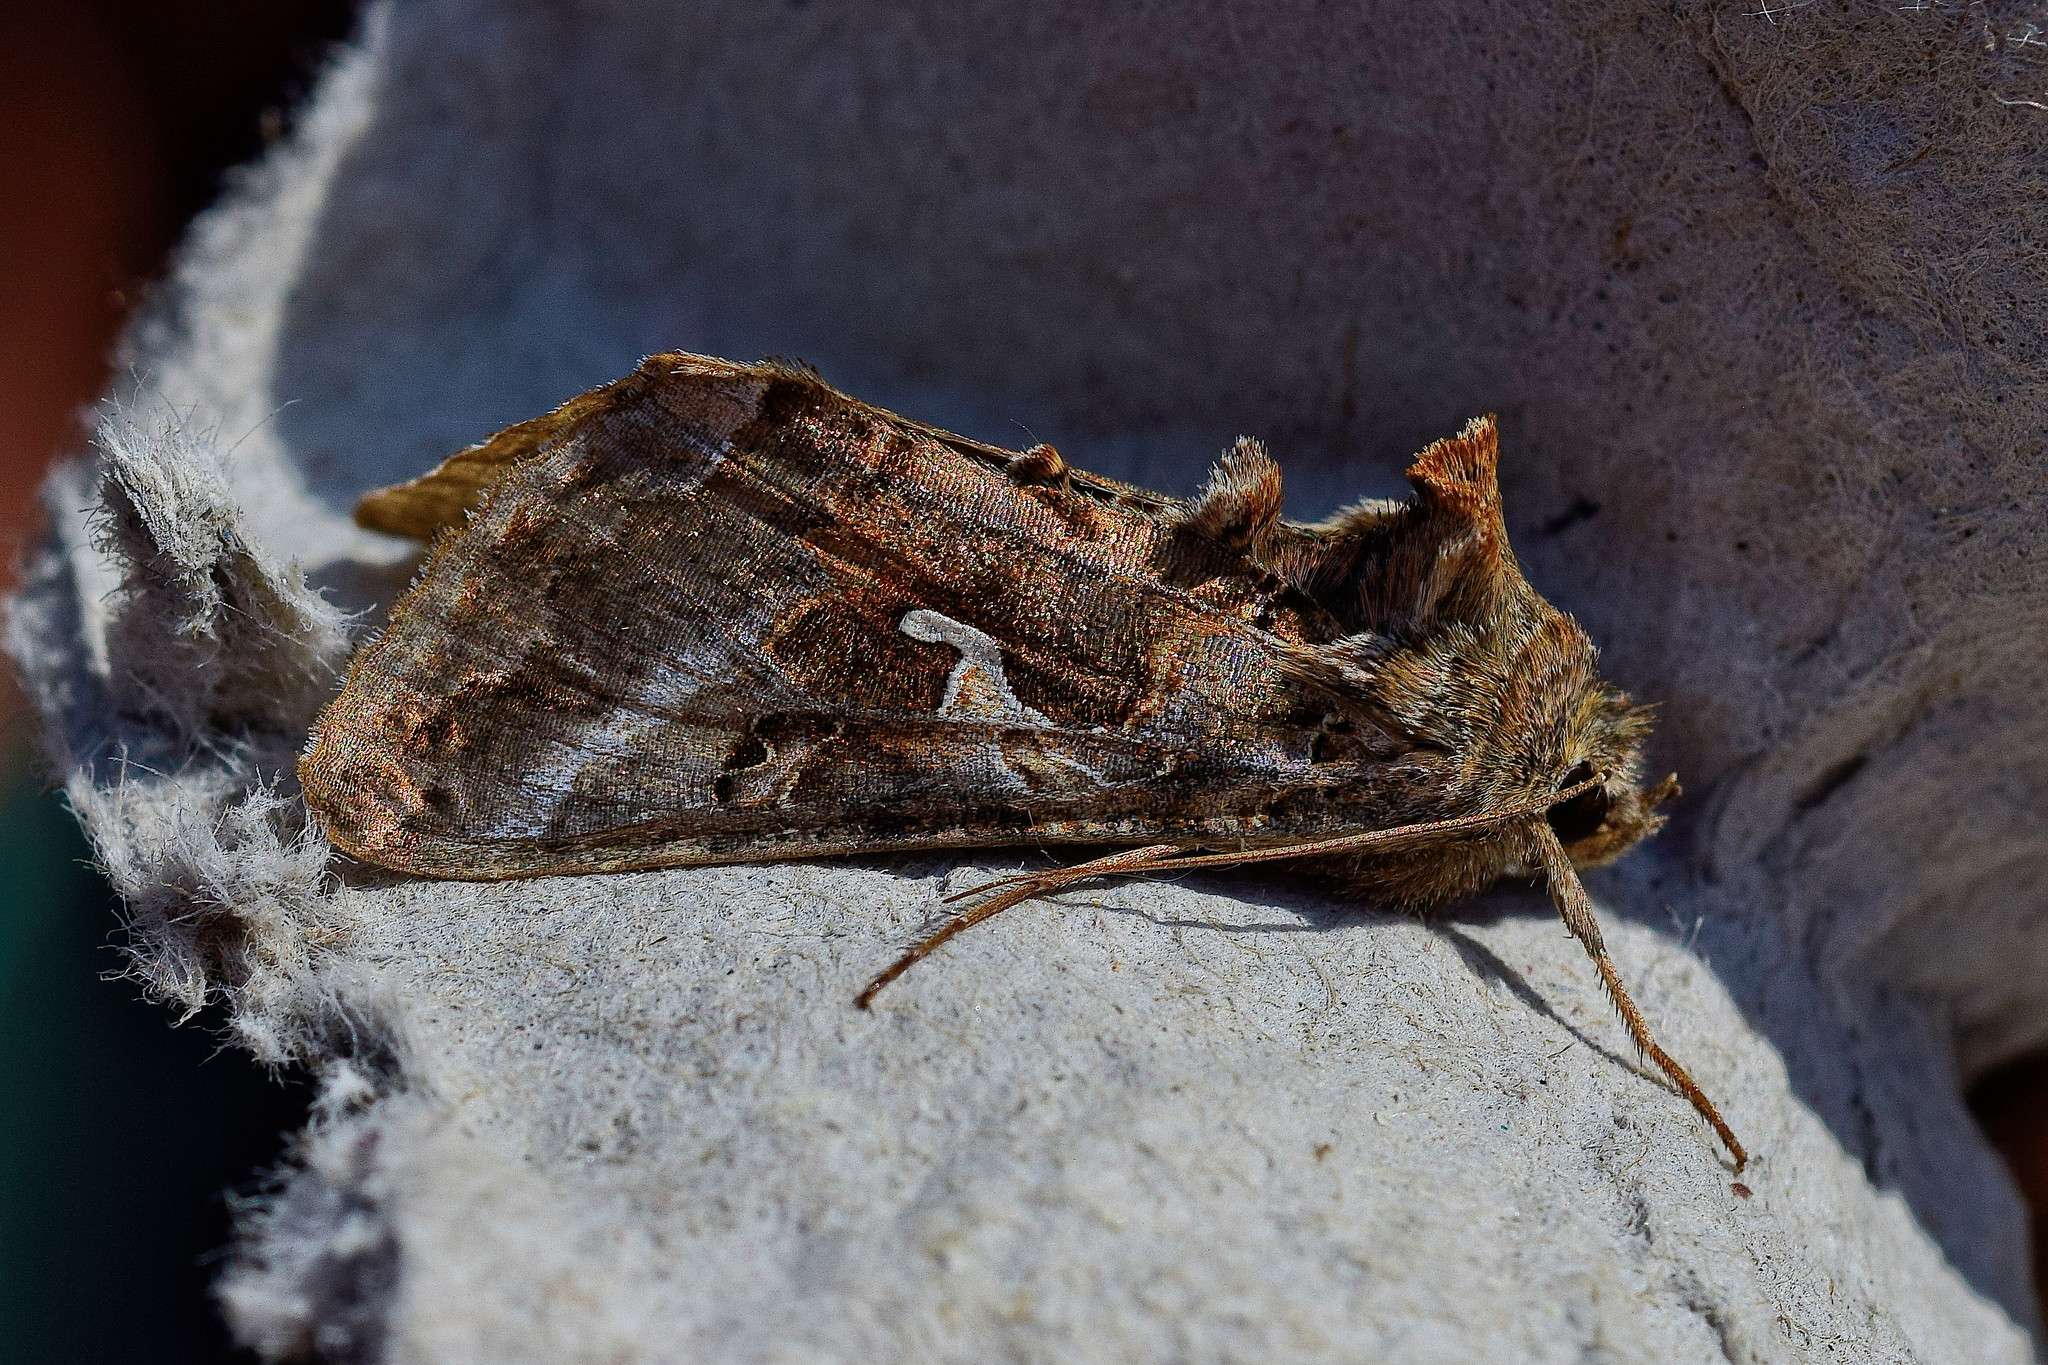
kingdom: Animalia
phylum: Arthropoda
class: Insecta
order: Lepidoptera
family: Noctuidae
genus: Autographa
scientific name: Autographa gamma
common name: Silver y
